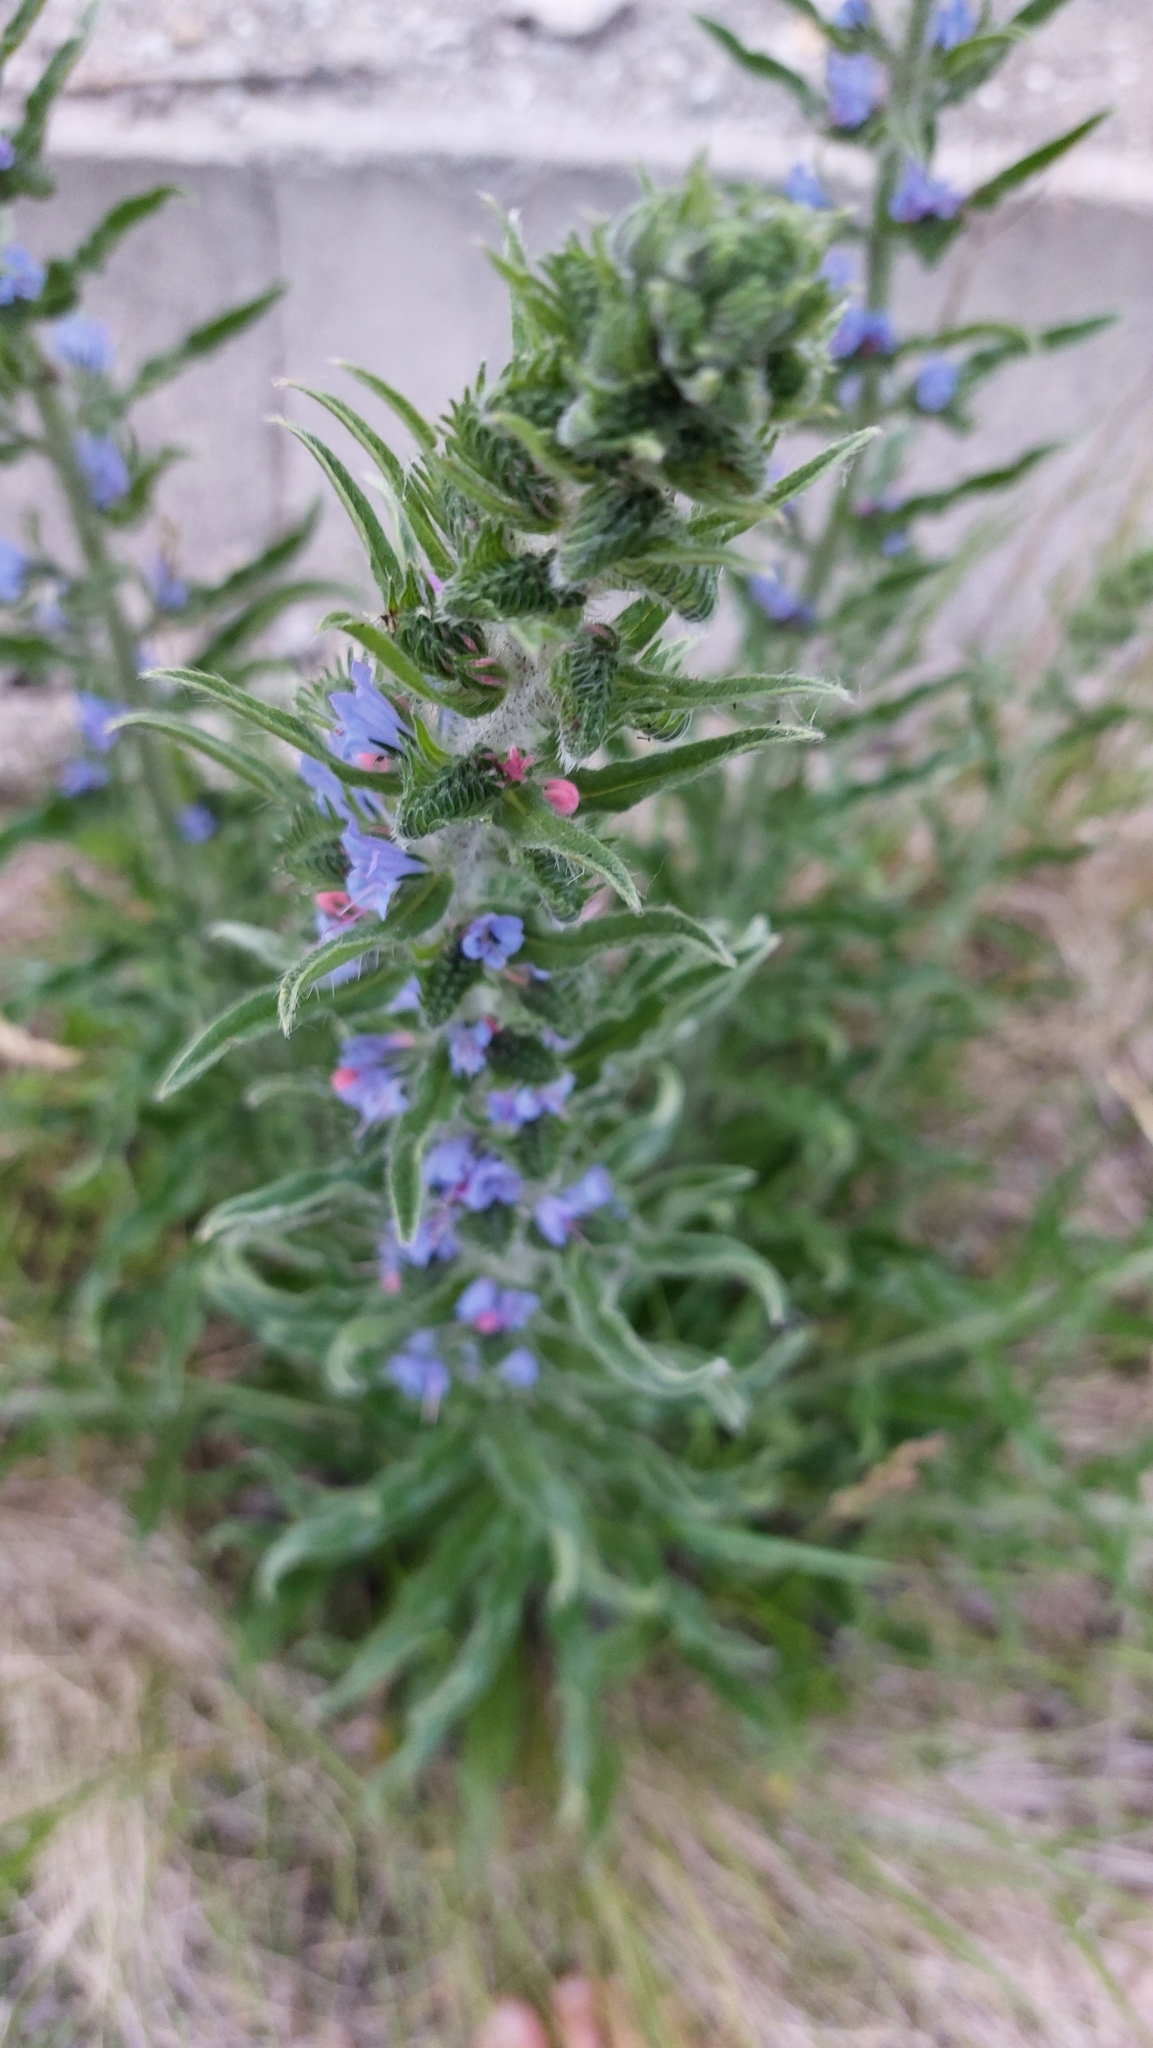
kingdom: Plantae
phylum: Tracheophyta
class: Magnoliopsida
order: Boraginales
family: Boraginaceae
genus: Echium
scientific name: Echium vulgare
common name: Common viper's bugloss
